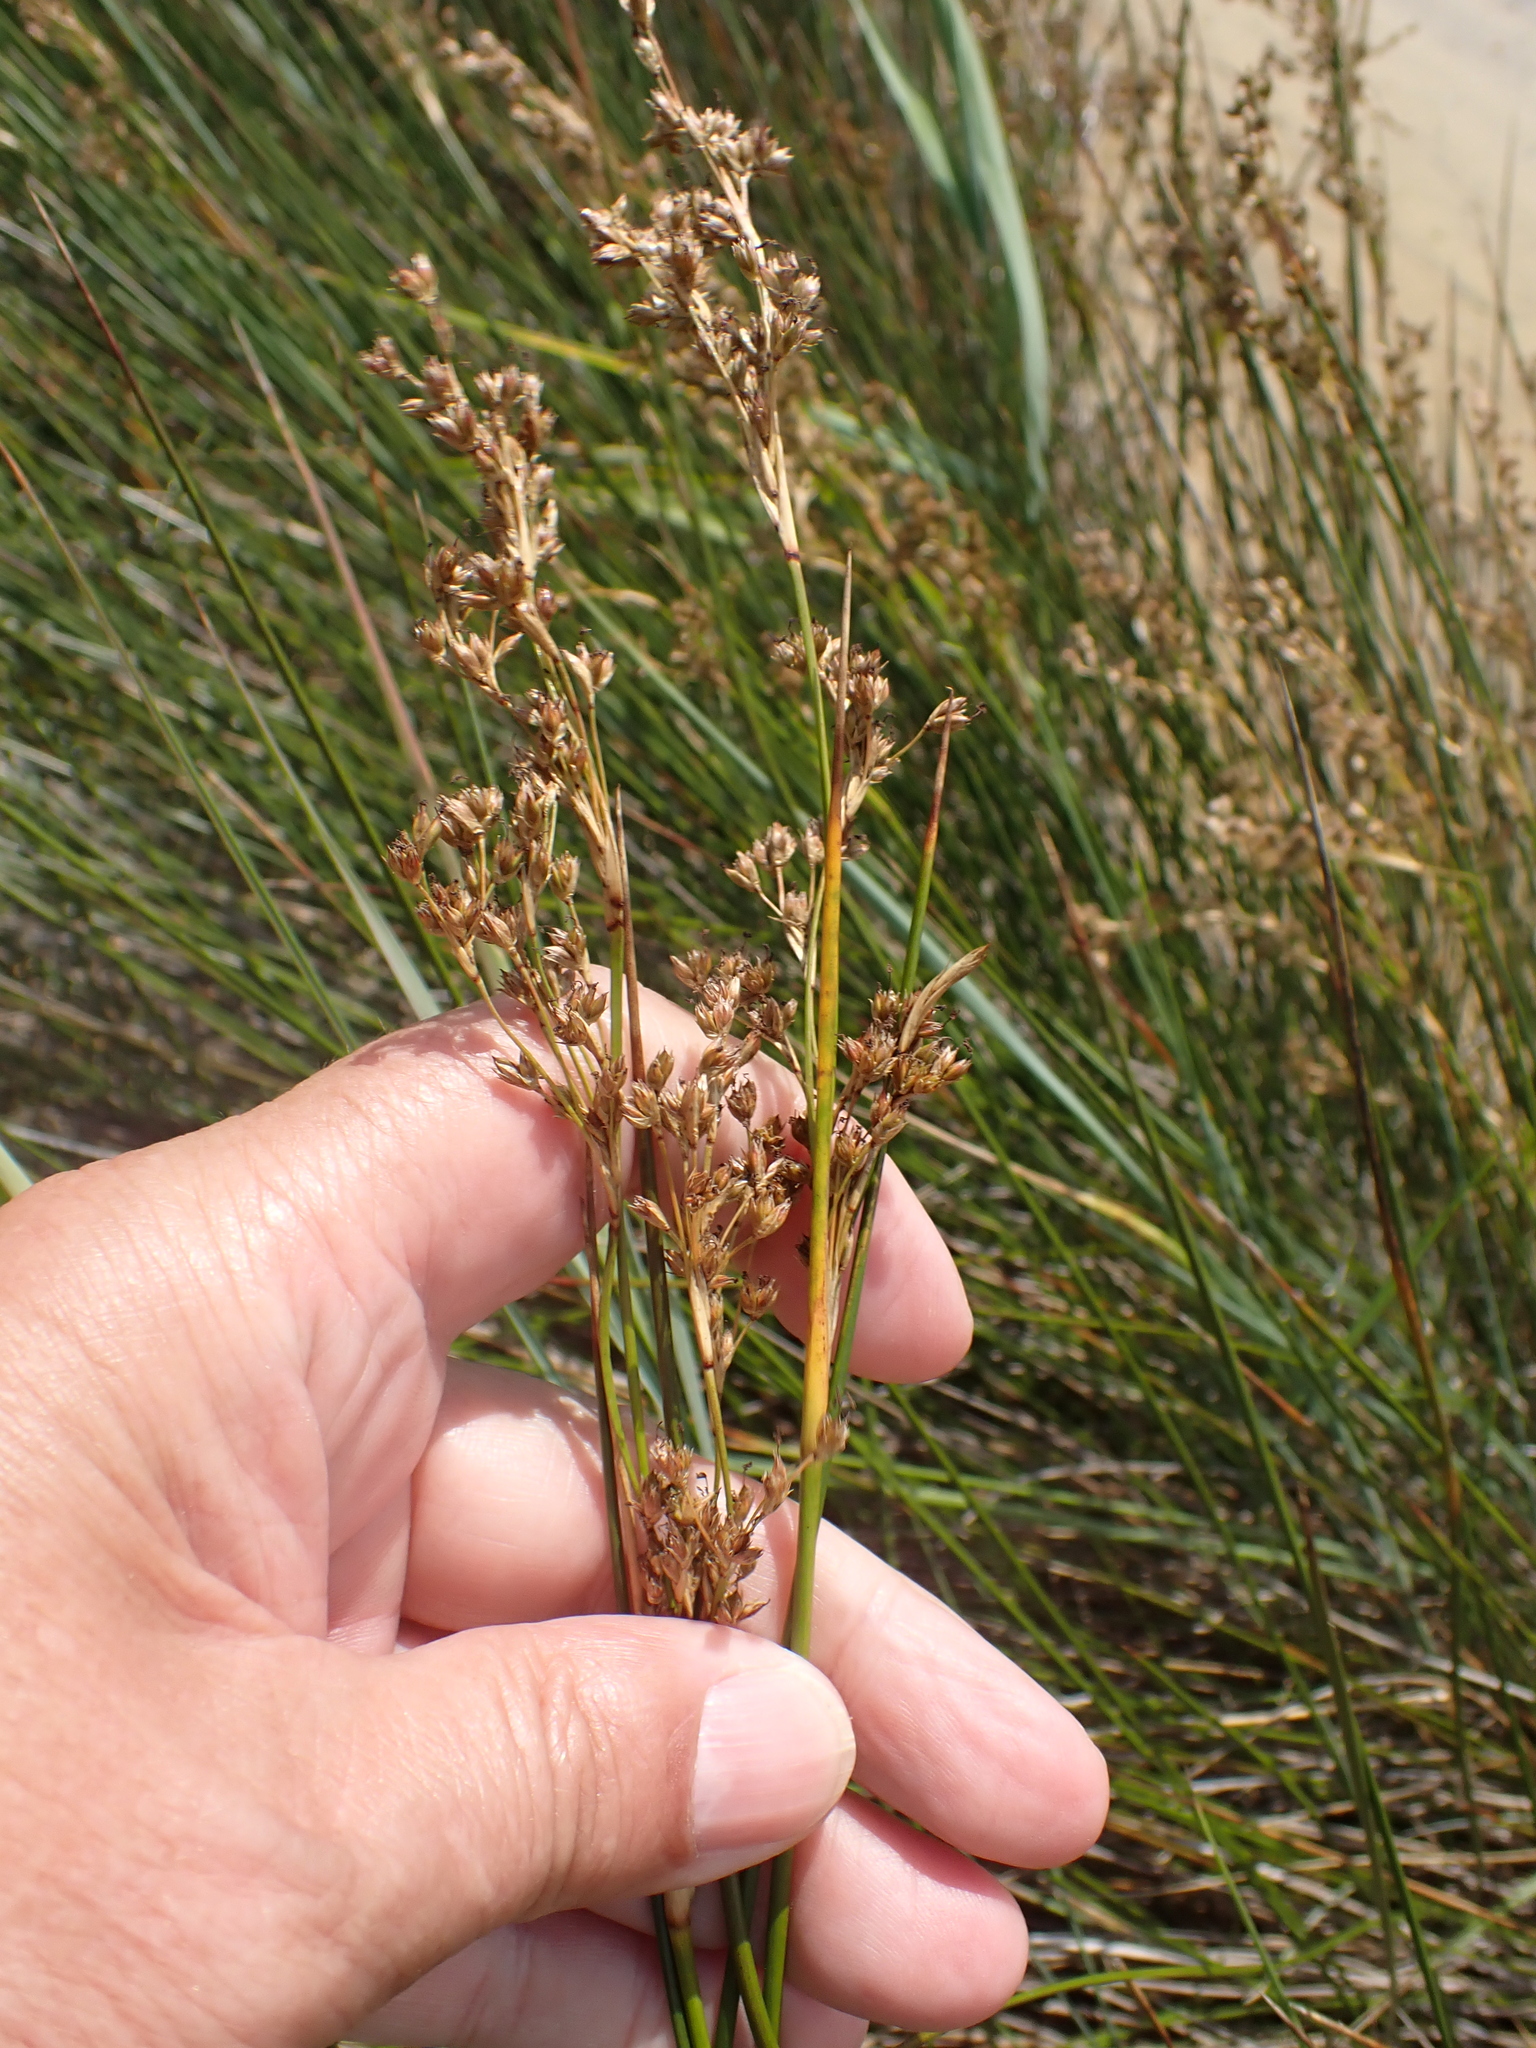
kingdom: Plantae
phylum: Tracheophyta
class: Liliopsida
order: Poales
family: Juncaceae
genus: Juncus
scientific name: Juncus maritimus
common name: Sea rush
